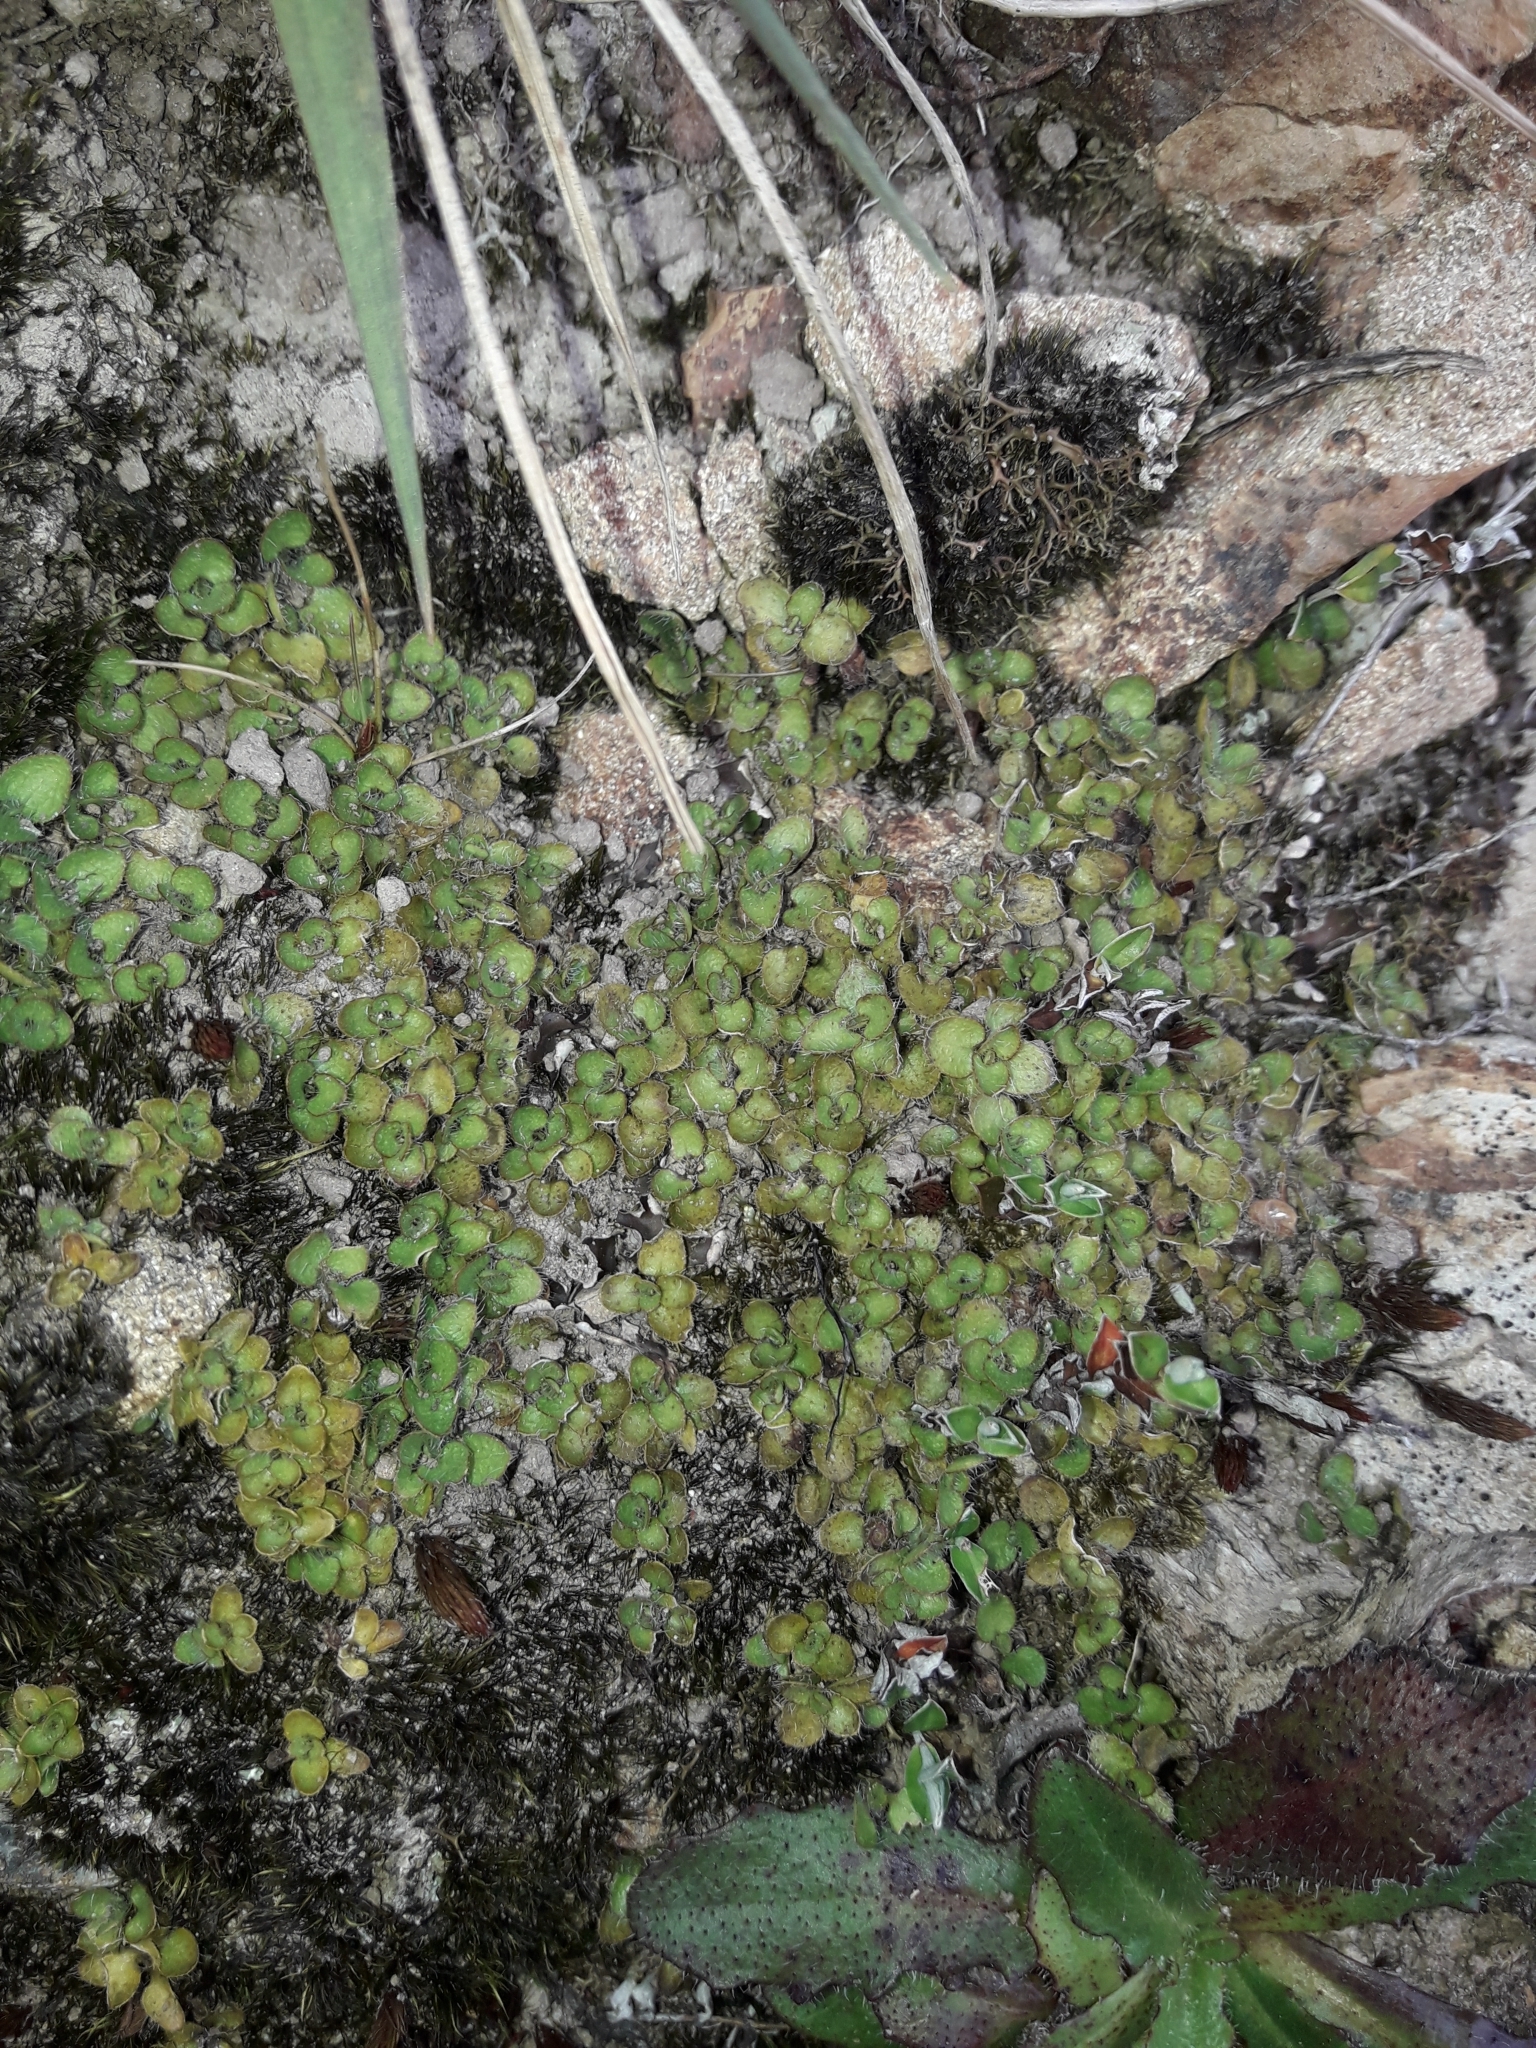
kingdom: Plantae
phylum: Tracheophyta
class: Magnoliopsida
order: Gentianales
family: Rubiaceae
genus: Leptostigma
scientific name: Leptostigma setulosum
